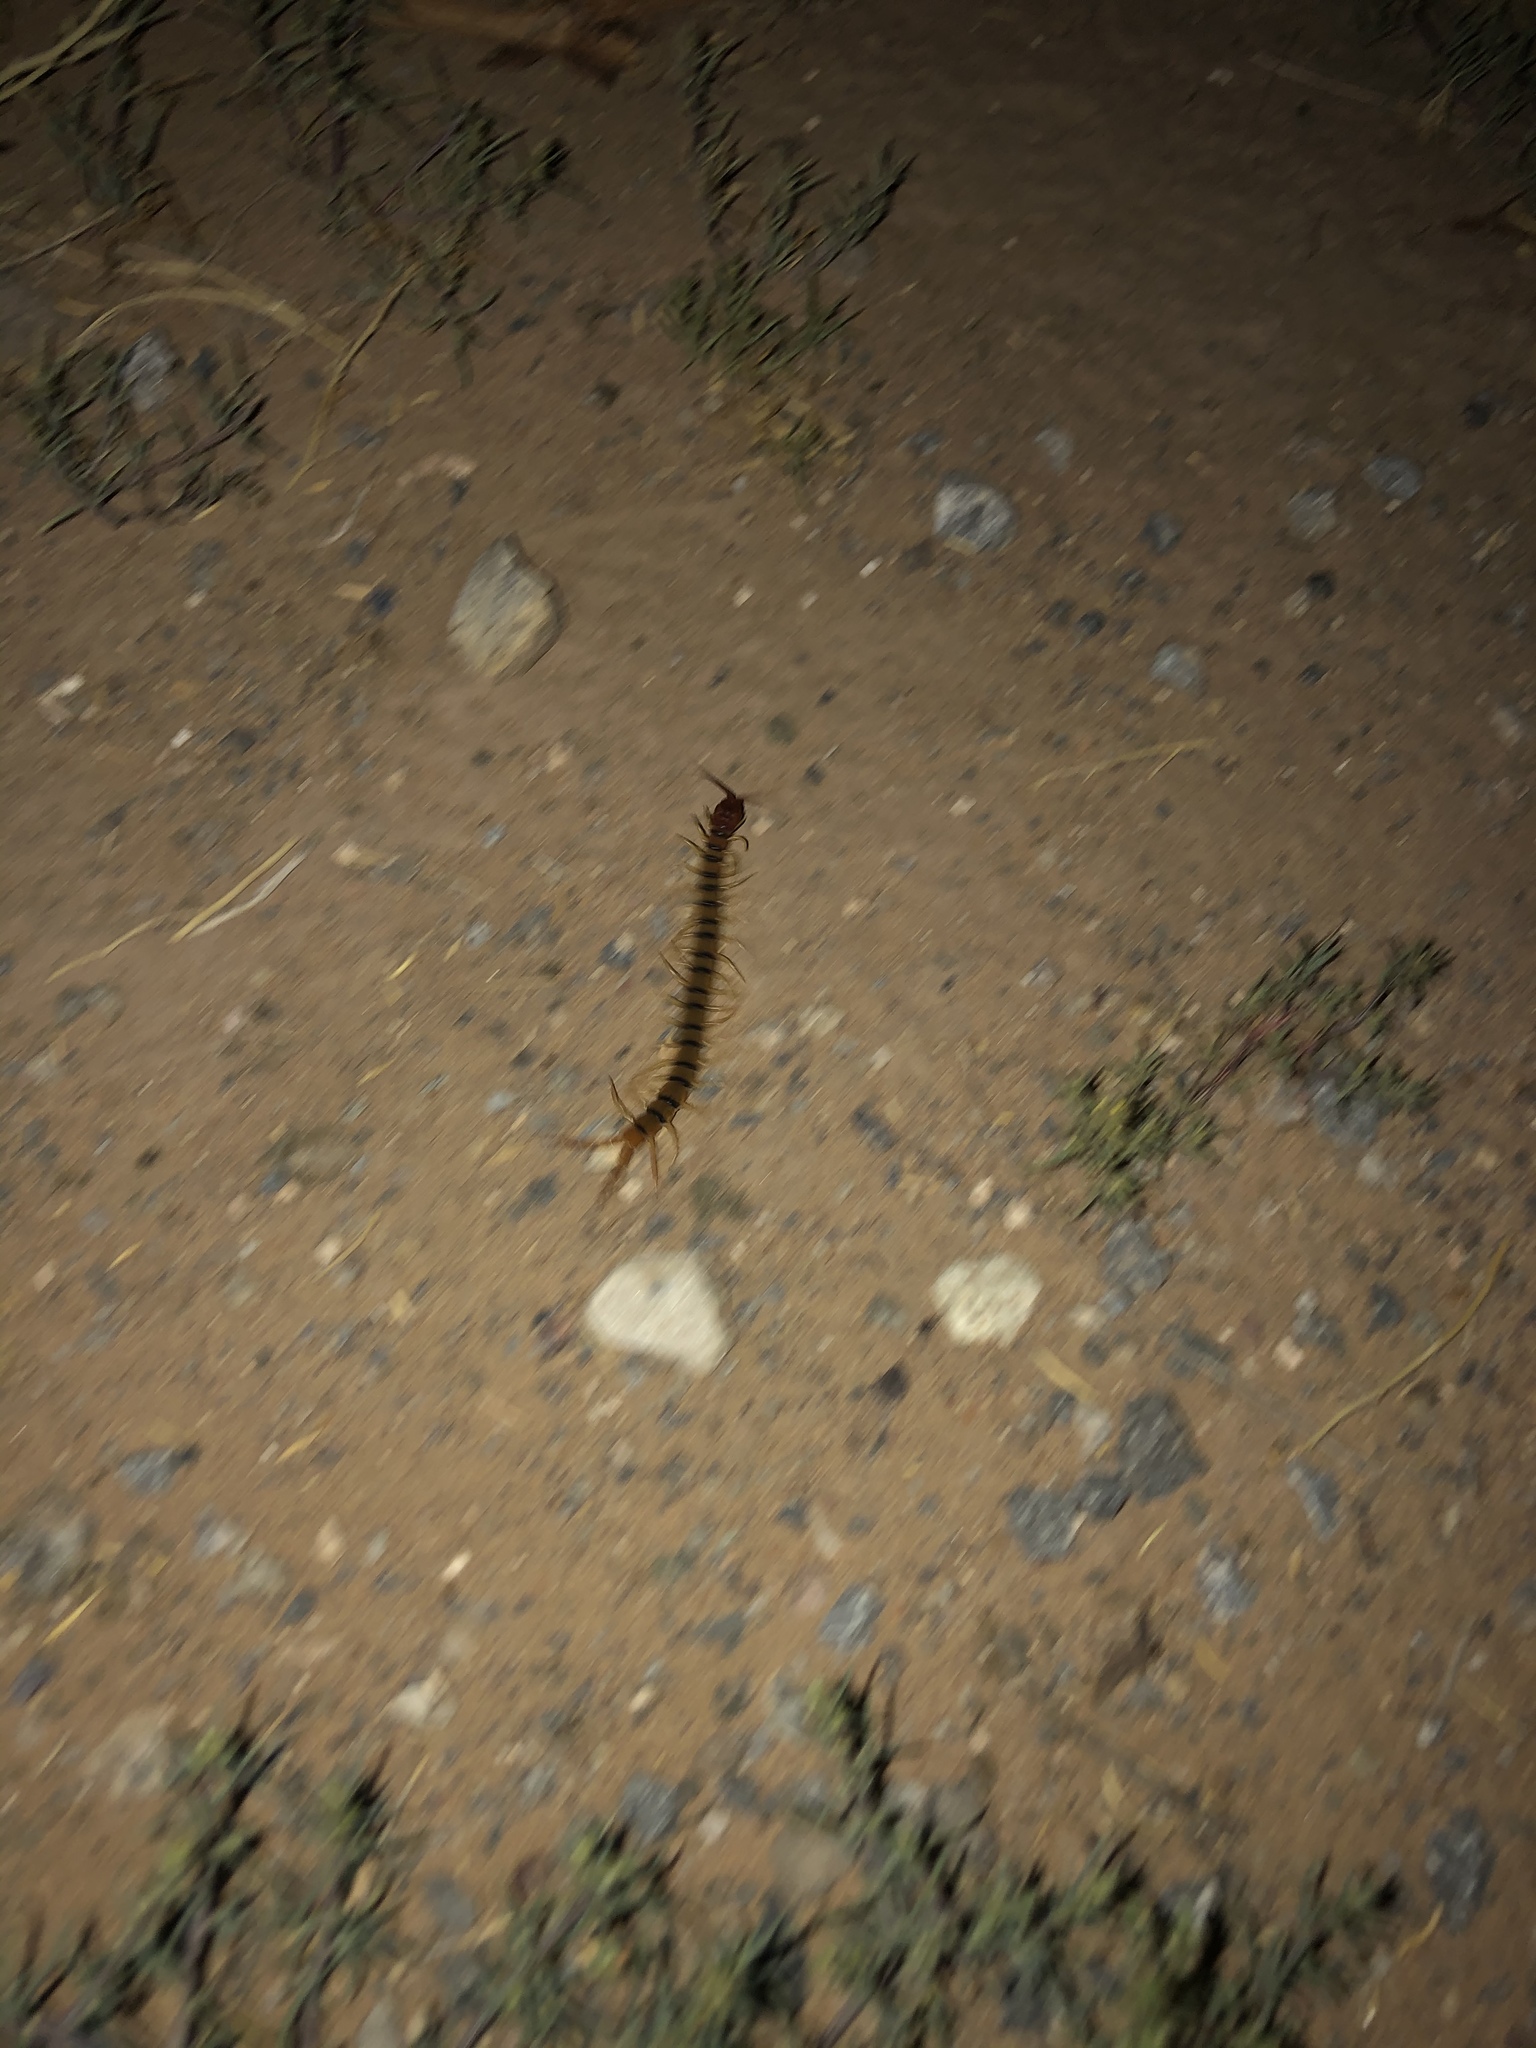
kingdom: Animalia
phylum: Arthropoda
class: Chilopoda
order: Scolopendromorpha
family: Scolopendridae
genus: Scolopendra
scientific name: Scolopendra polymorpha
